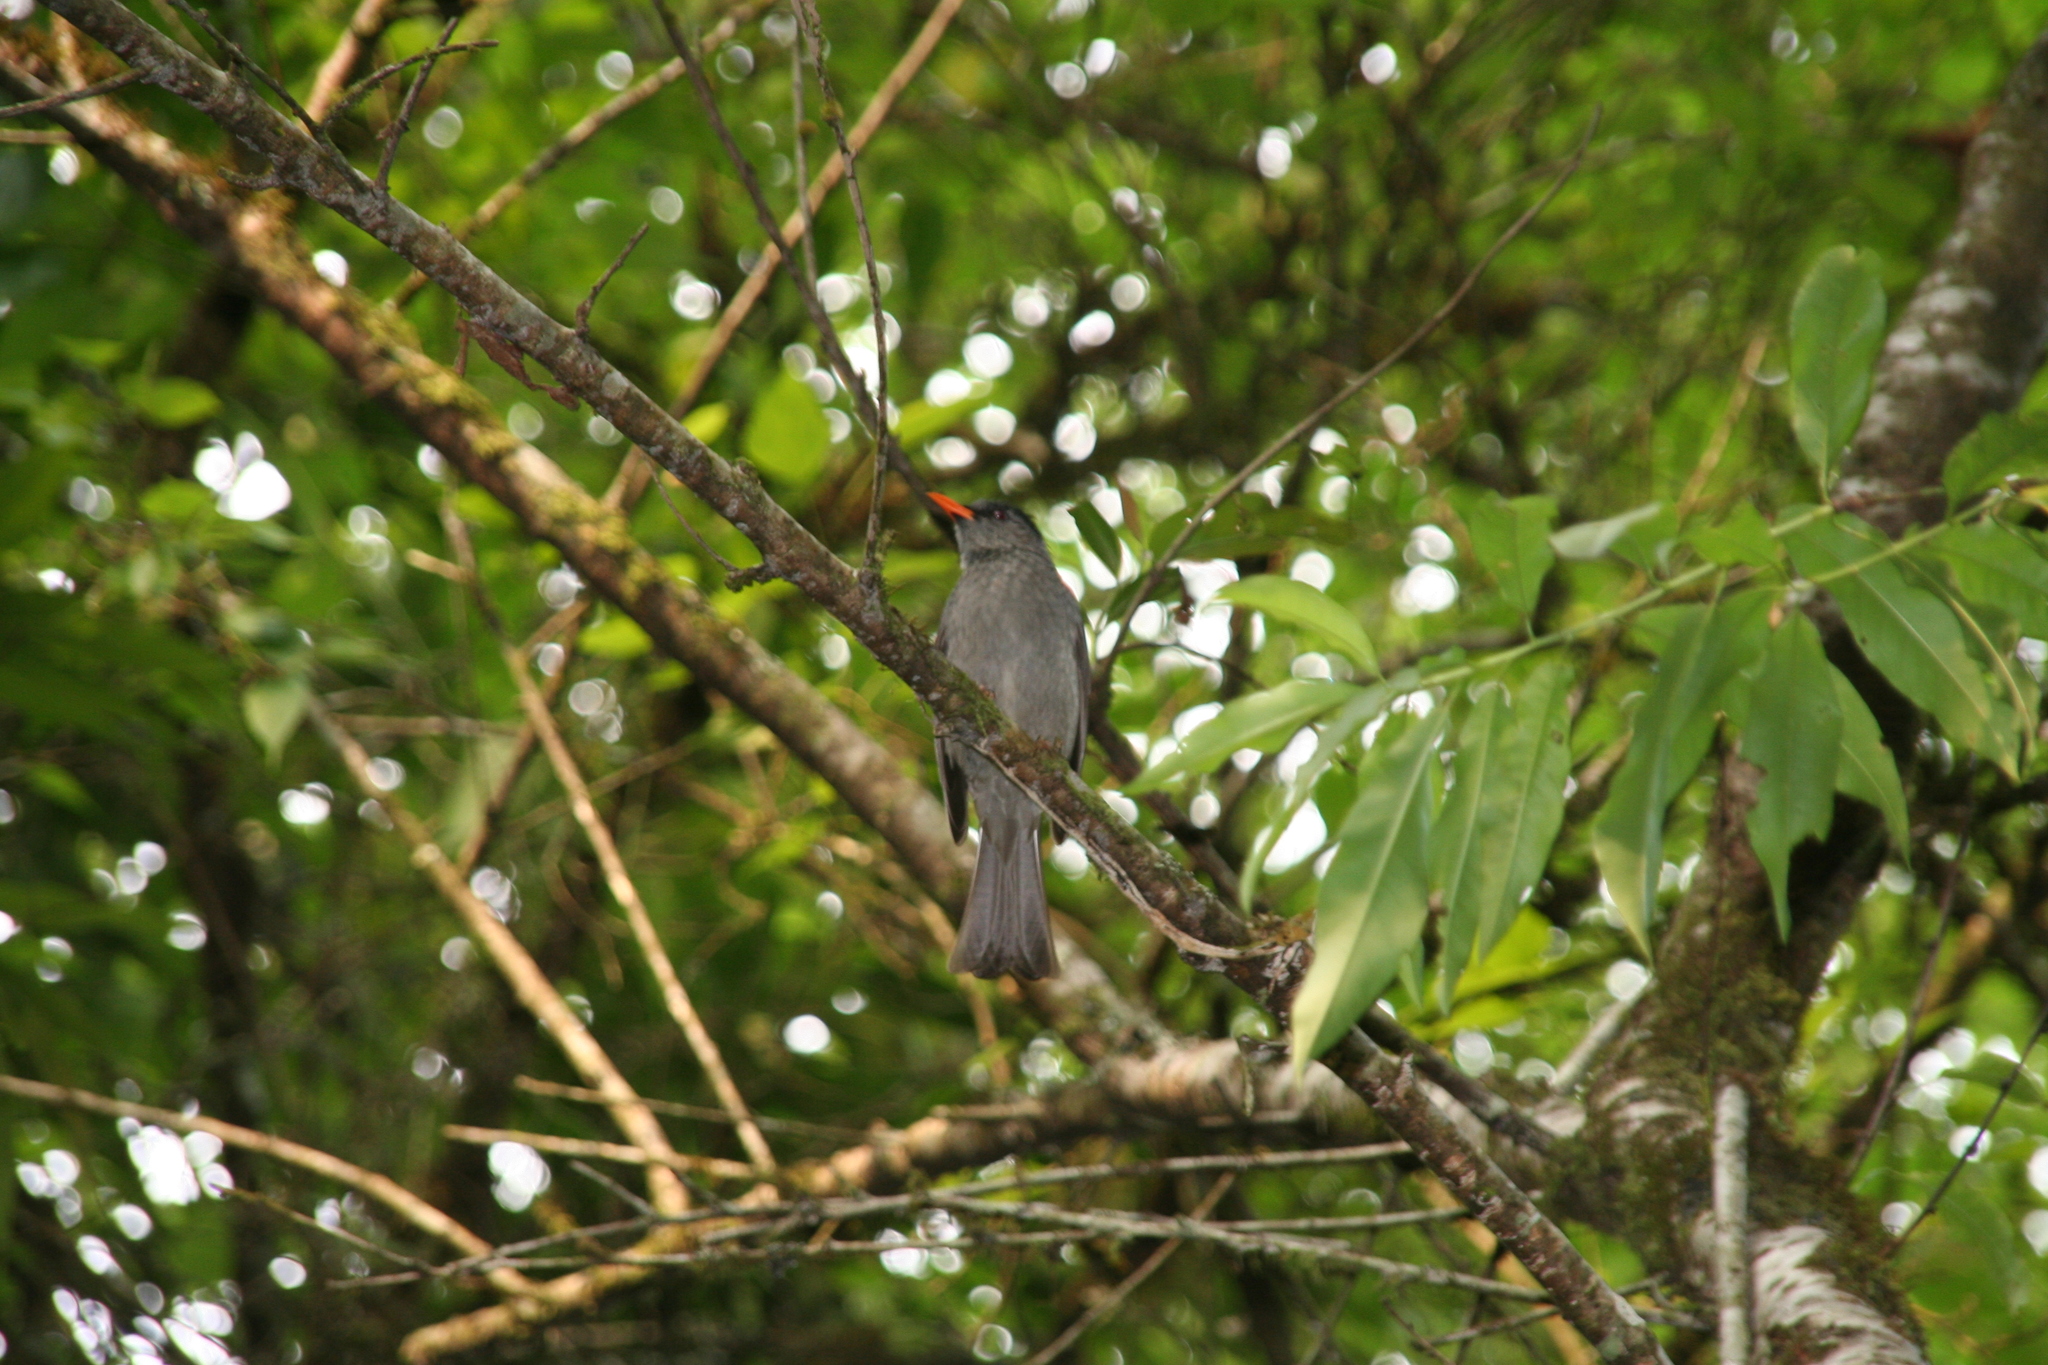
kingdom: Animalia
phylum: Chordata
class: Aves
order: Passeriformes
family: Pycnonotidae
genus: Hypsipetes
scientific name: Hypsipetes madagascariensis
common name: Malagasy bulbul
